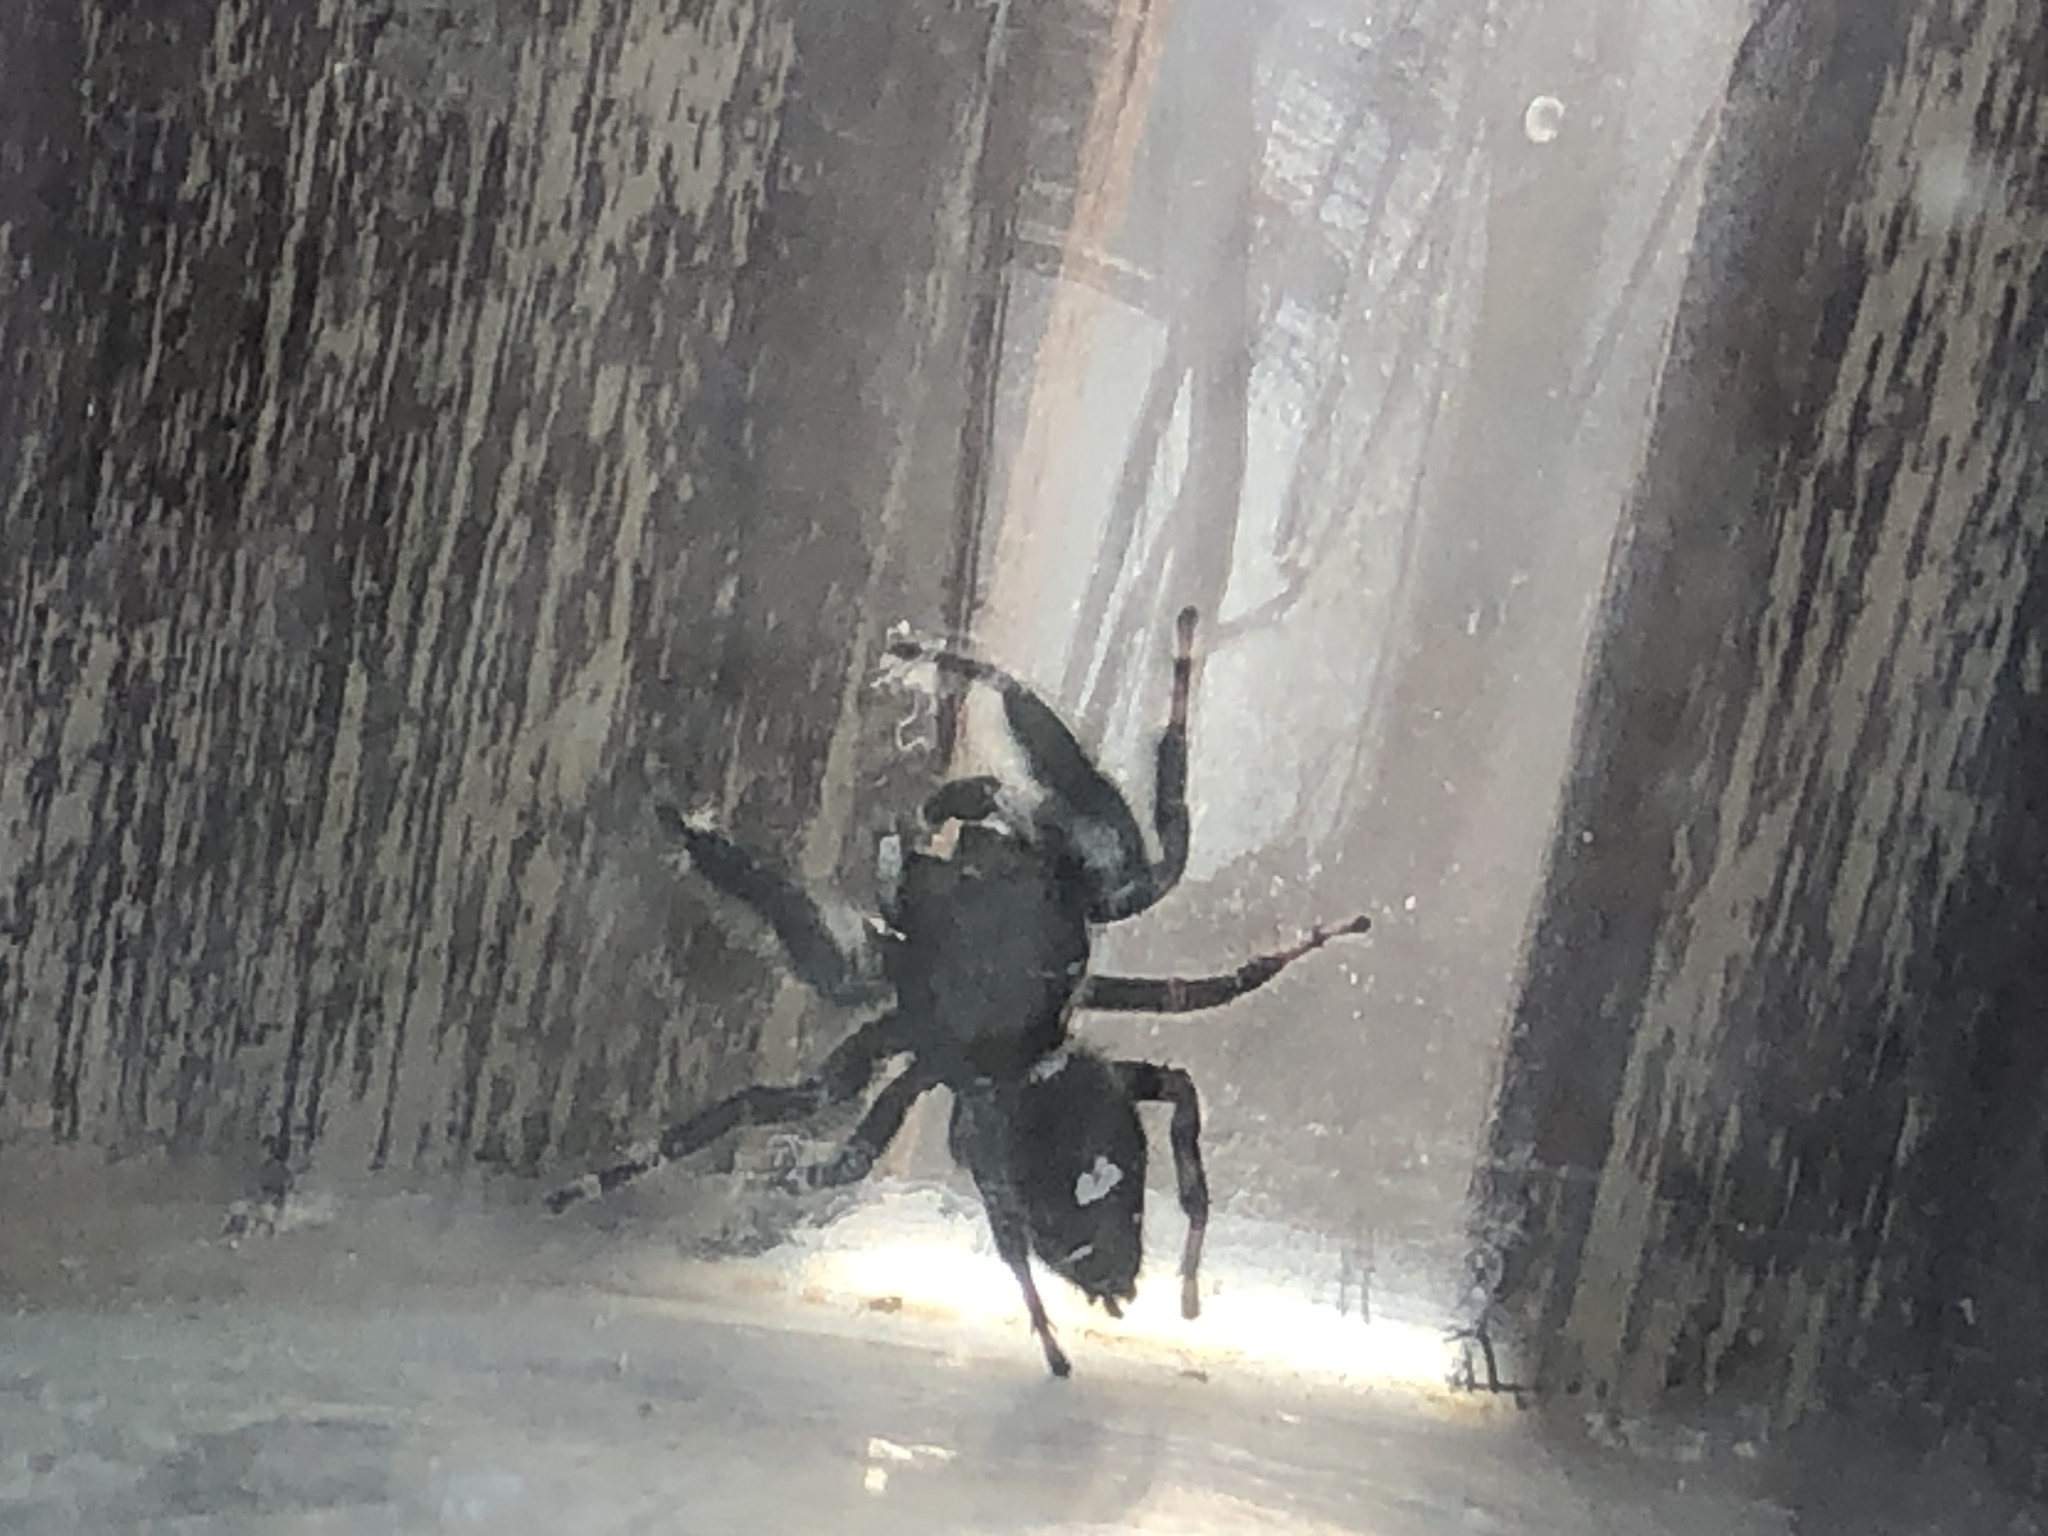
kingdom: Animalia
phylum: Arthropoda
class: Arachnida
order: Araneae
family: Salticidae
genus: Phidippus
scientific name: Phidippus audax
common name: Bold jumper
